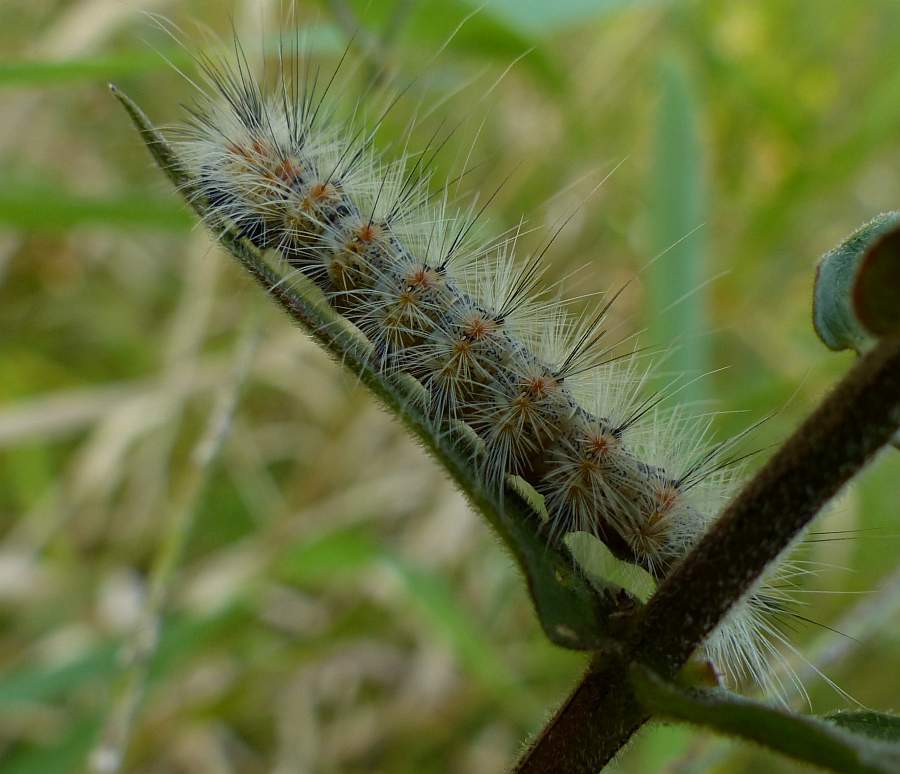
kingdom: Animalia
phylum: Arthropoda
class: Insecta
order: Lepidoptera
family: Erebidae
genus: Hyphantria
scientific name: Hyphantria cunea
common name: American white moth
